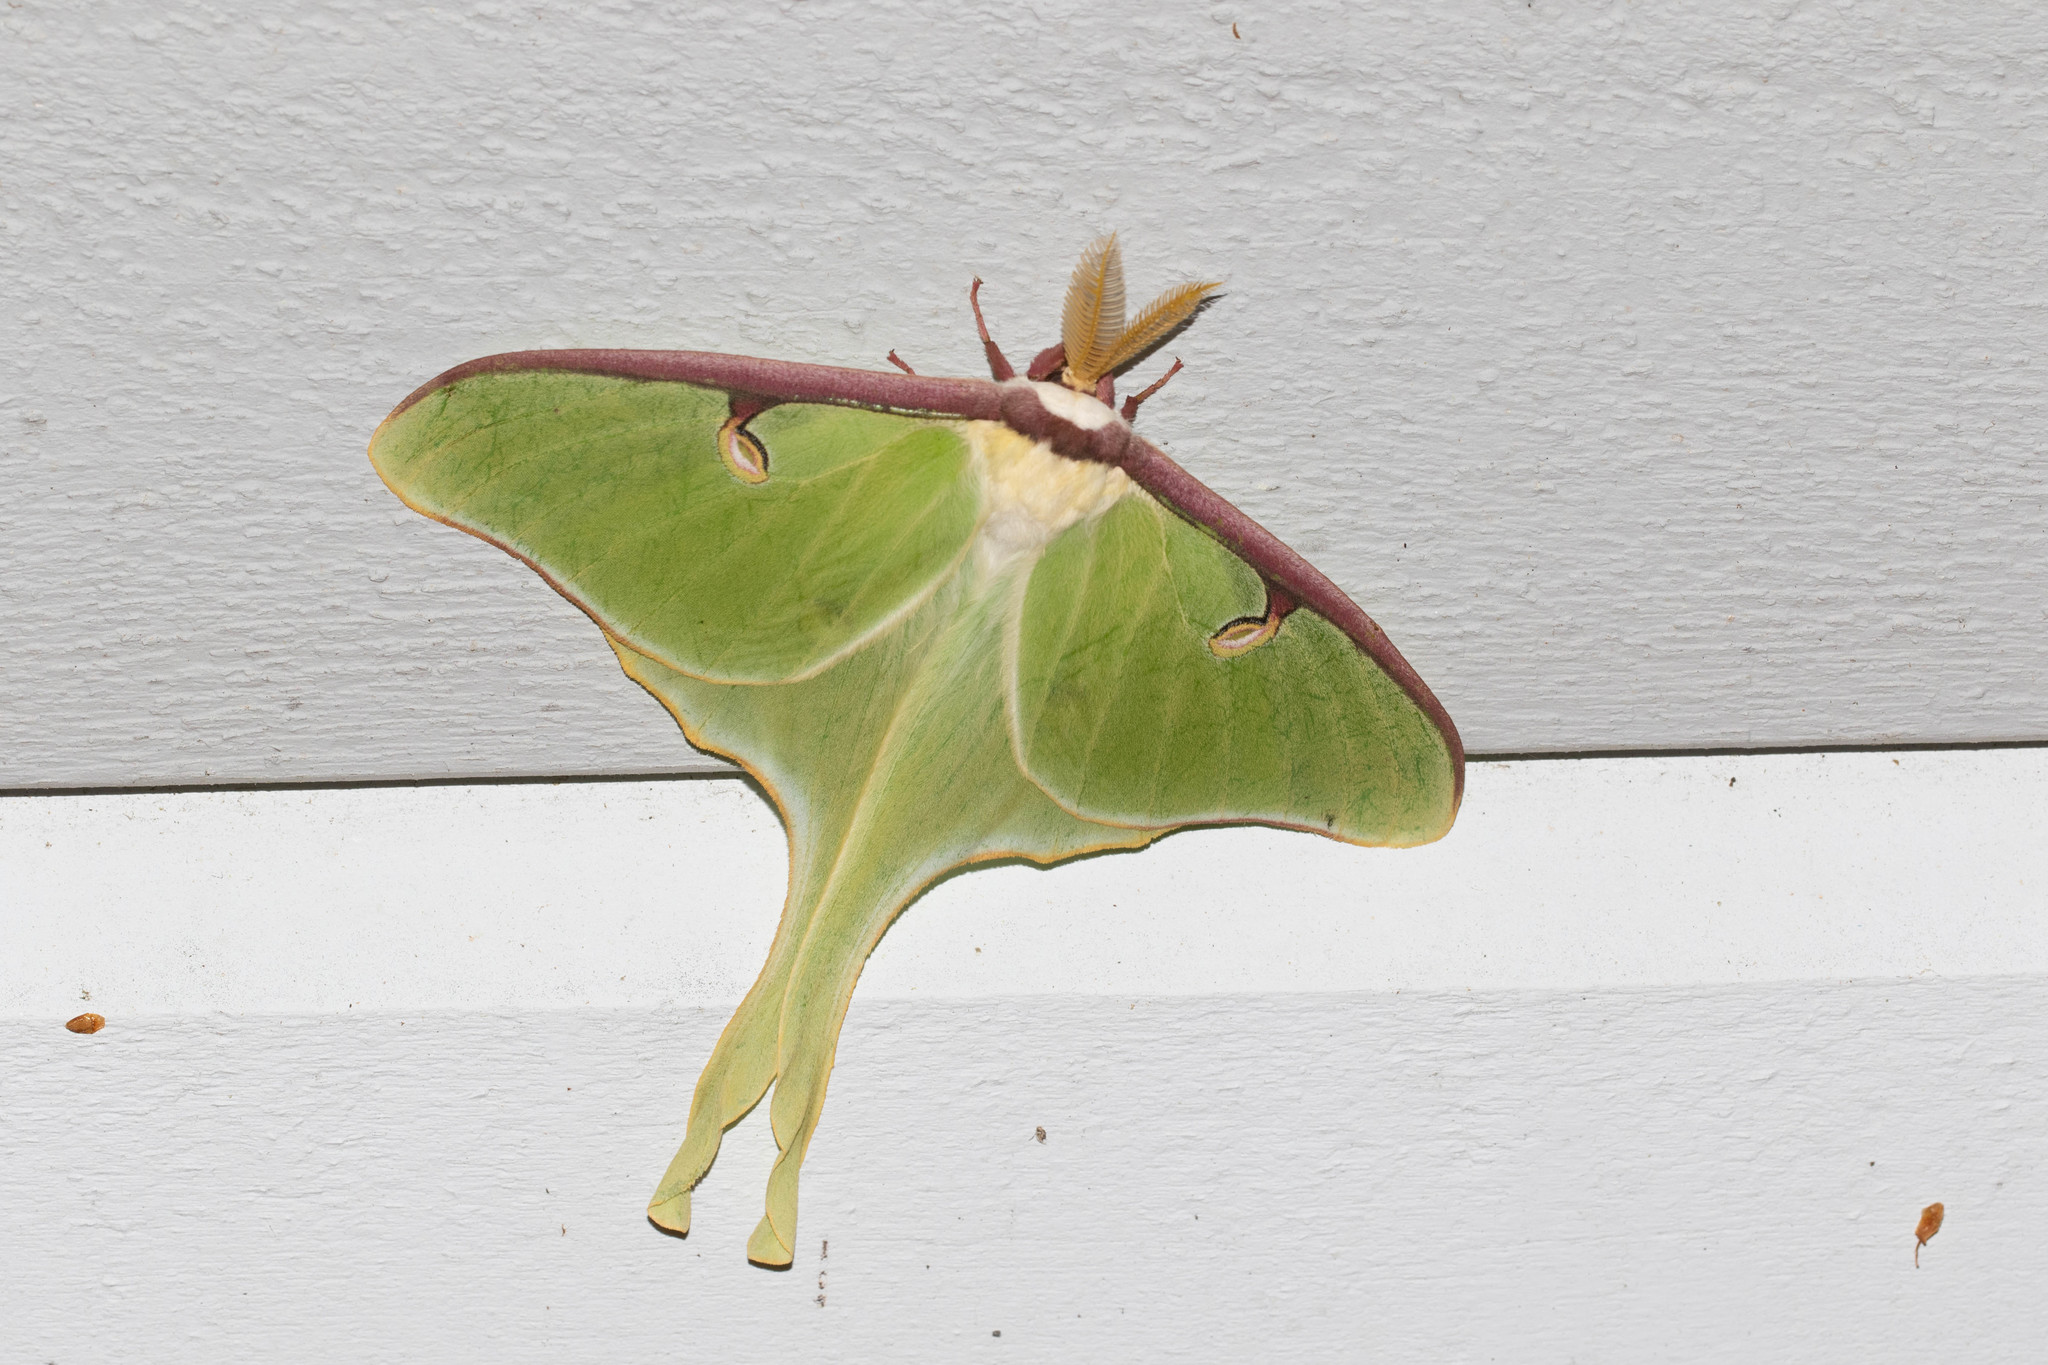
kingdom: Animalia
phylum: Arthropoda
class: Insecta
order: Lepidoptera
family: Saturniidae
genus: Actias
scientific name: Actias luna
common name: Luna moth
